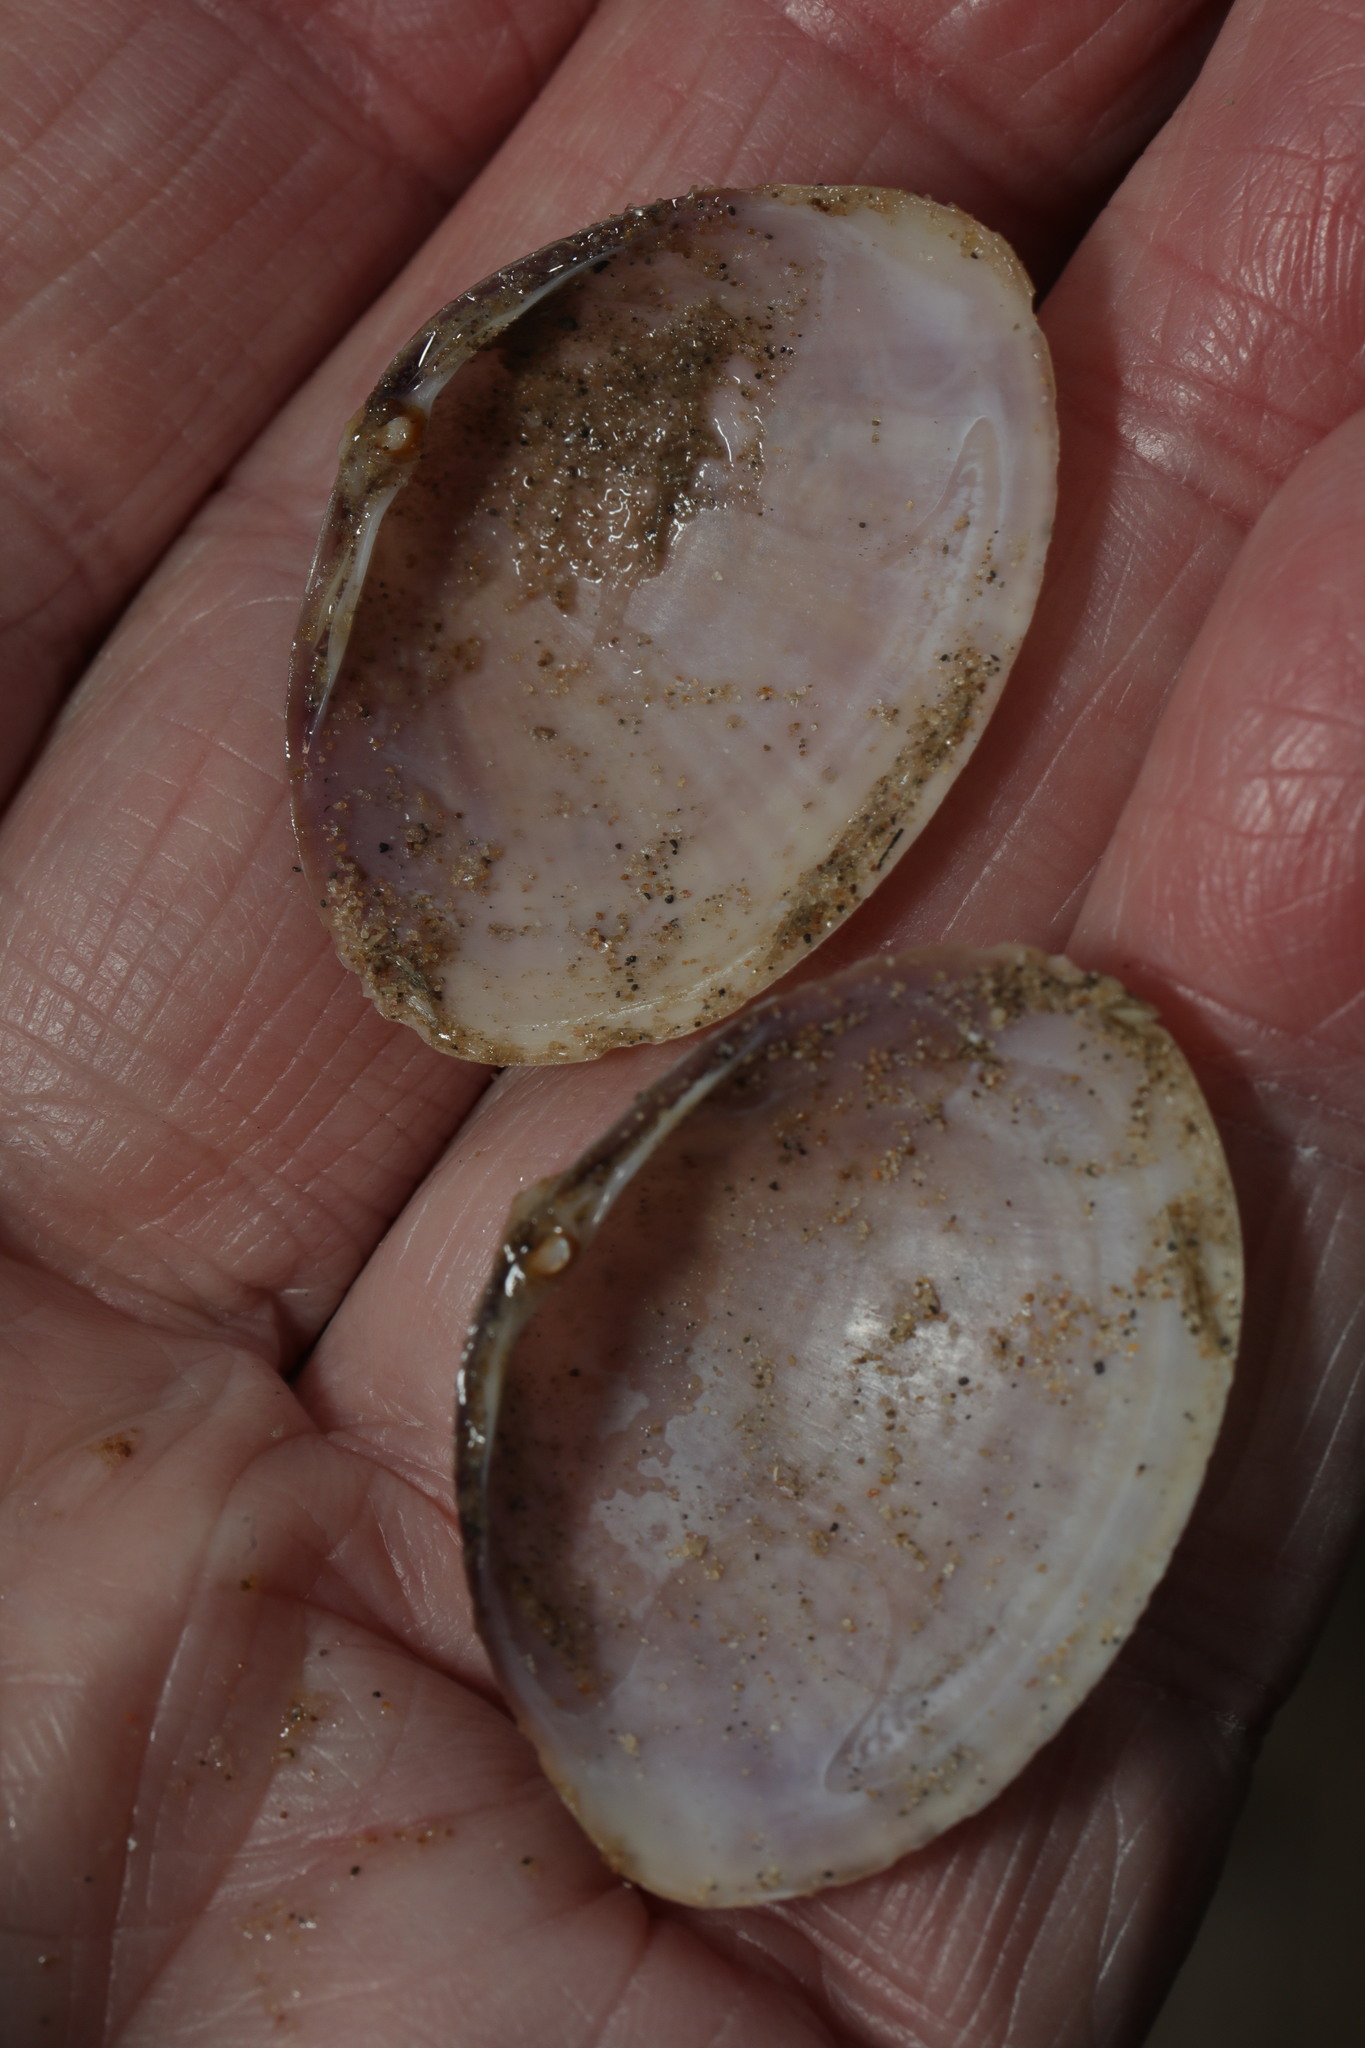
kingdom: Animalia
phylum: Mollusca
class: Bivalvia
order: Venerida
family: Mactridae
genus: Mactra
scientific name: Mactra stultorum
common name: Rayed trough shell
